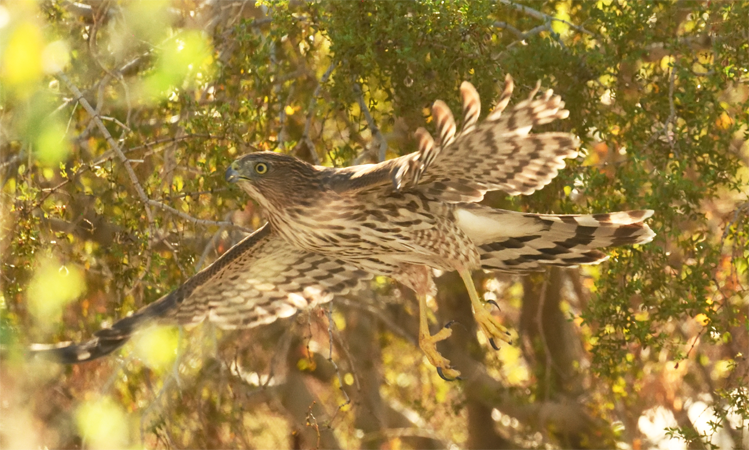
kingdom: Animalia
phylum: Chordata
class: Aves
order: Accipitriformes
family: Accipitridae
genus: Accipiter
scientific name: Accipiter cooperii
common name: Cooper's hawk
